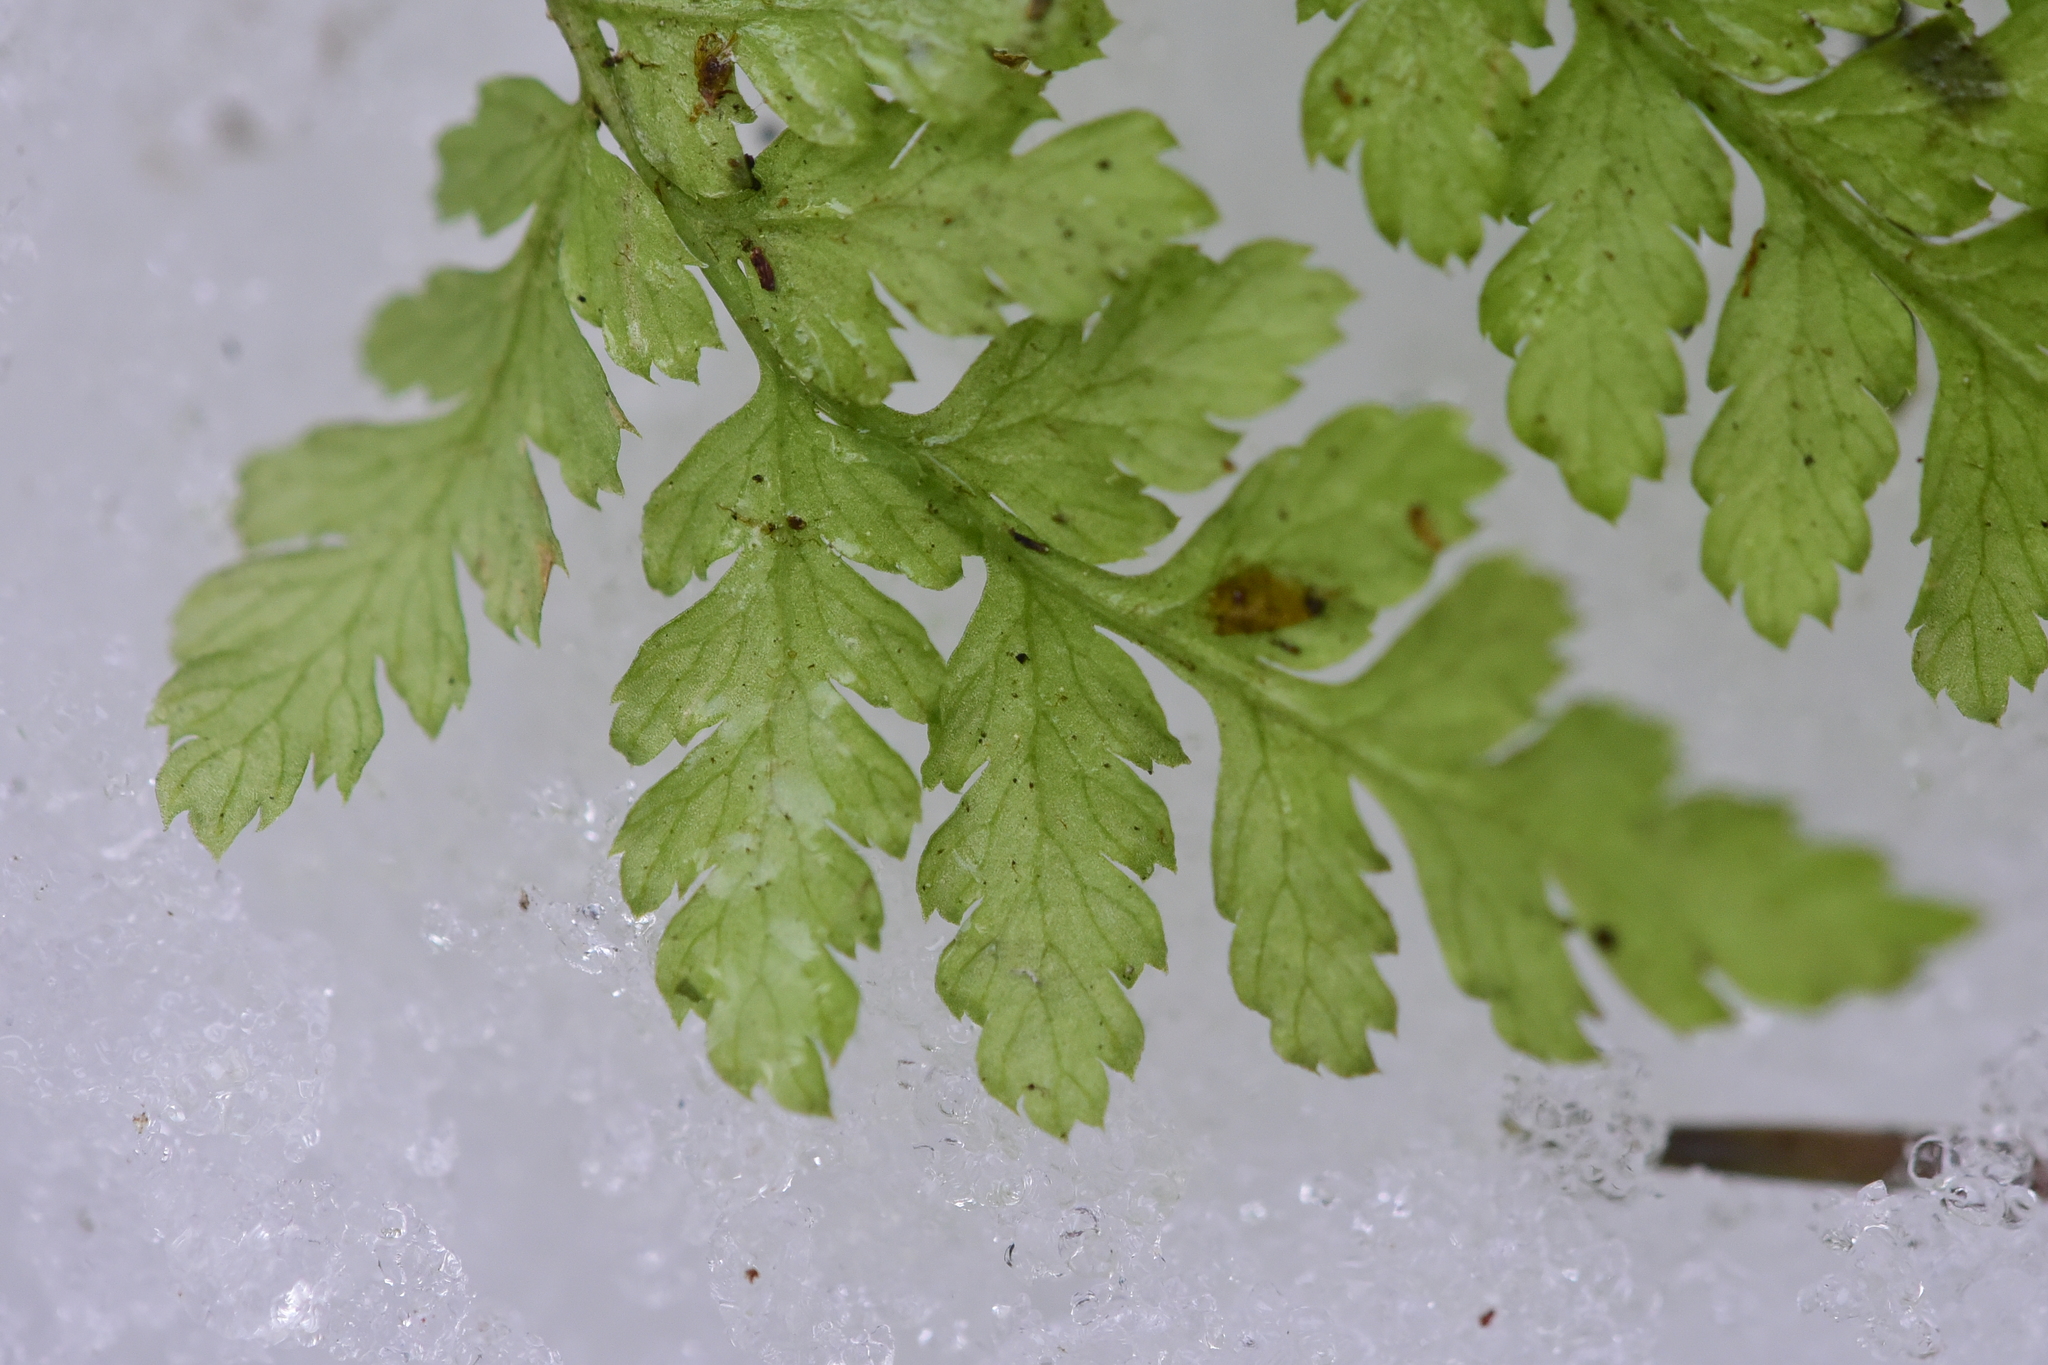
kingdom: Plantae
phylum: Tracheophyta
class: Polypodiopsida
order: Polypodiales
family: Dryopteridaceae
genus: Dryopteris
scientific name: Dryopteris expansa
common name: Northern buckler fern
